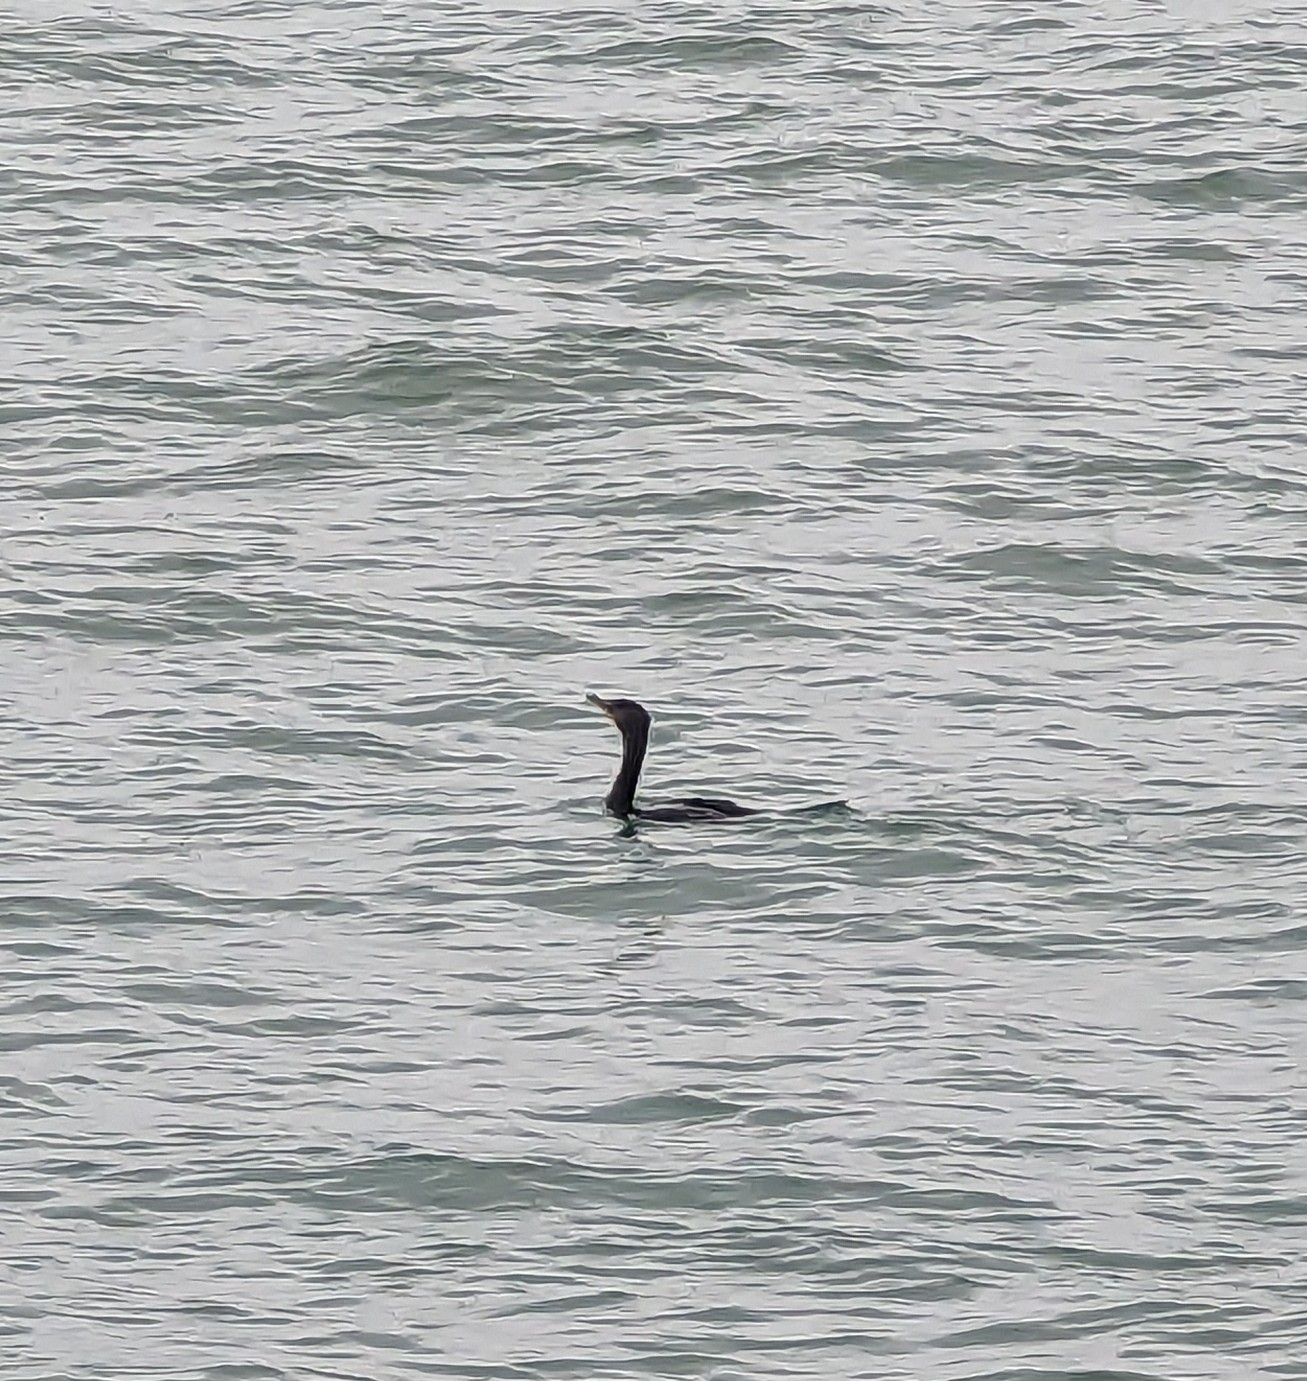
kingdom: Animalia
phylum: Chordata
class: Aves
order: Suliformes
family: Phalacrocoracidae
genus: Phalacrocorax
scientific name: Phalacrocorax auritus
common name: Double-crested cormorant
